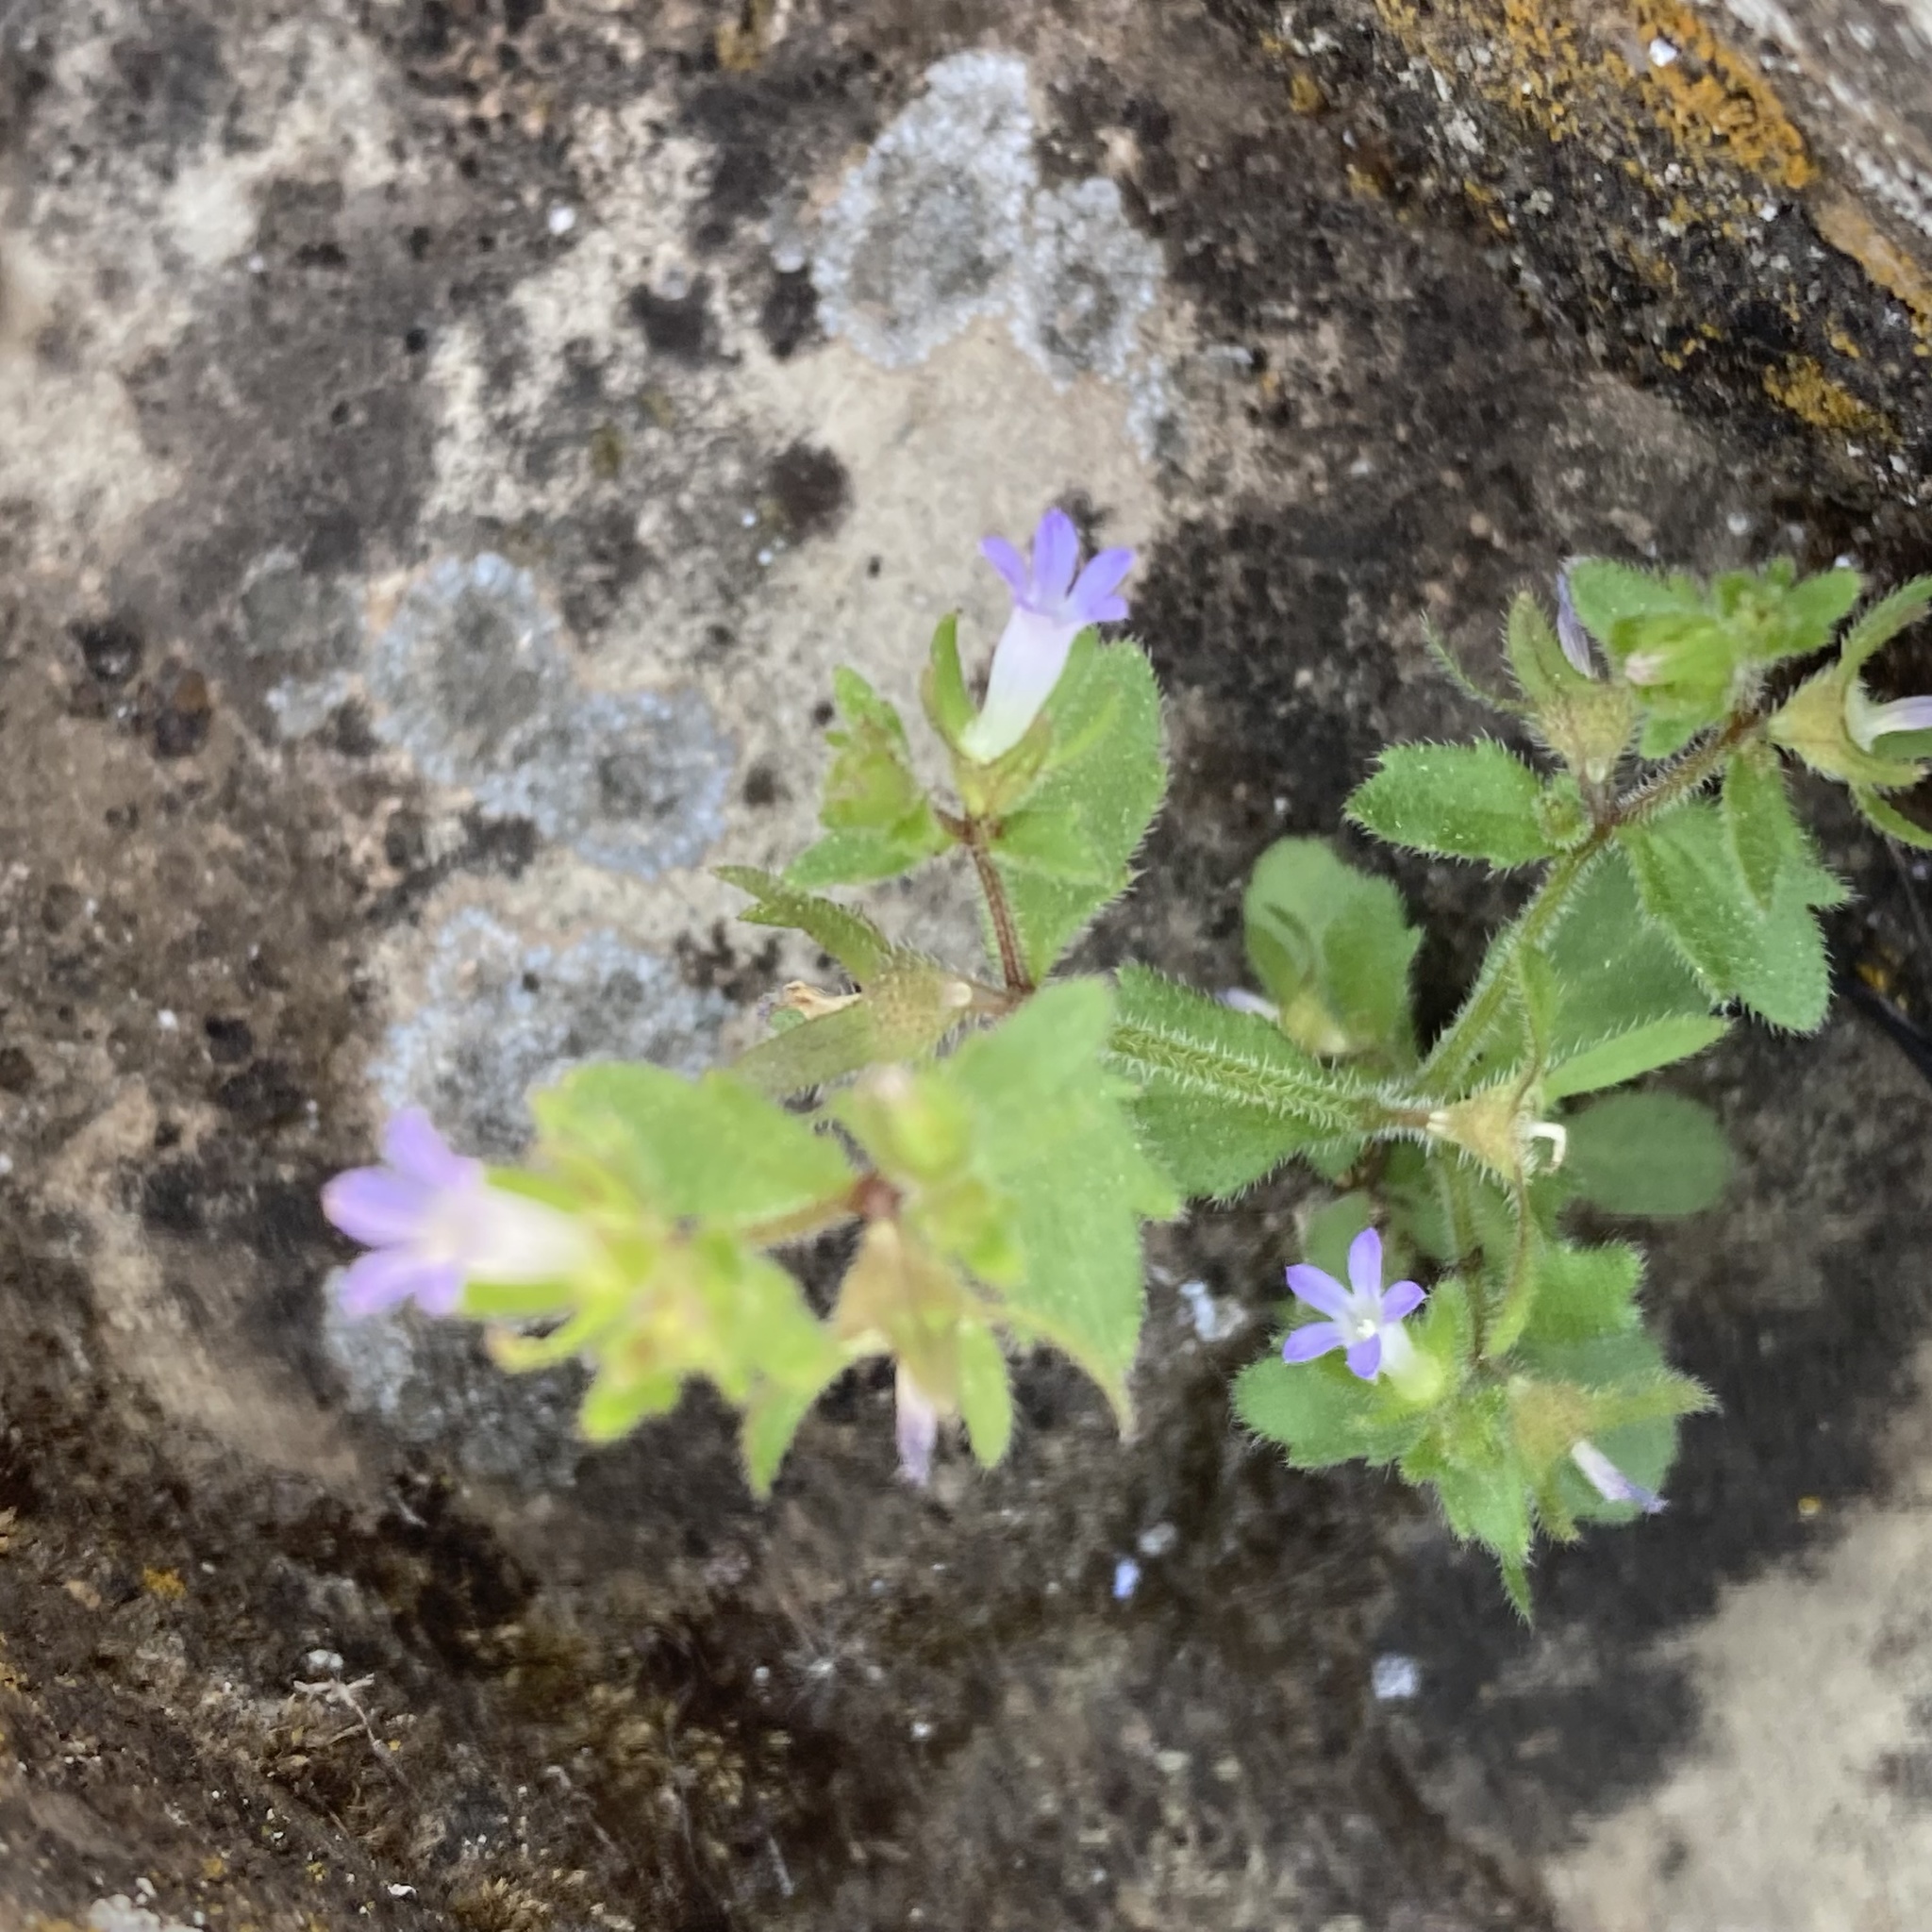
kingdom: Plantae
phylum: Tracheophyta
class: Magnoliopsida
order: Asterales
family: Campanulaceae
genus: Campanula
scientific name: Campanula erinus
